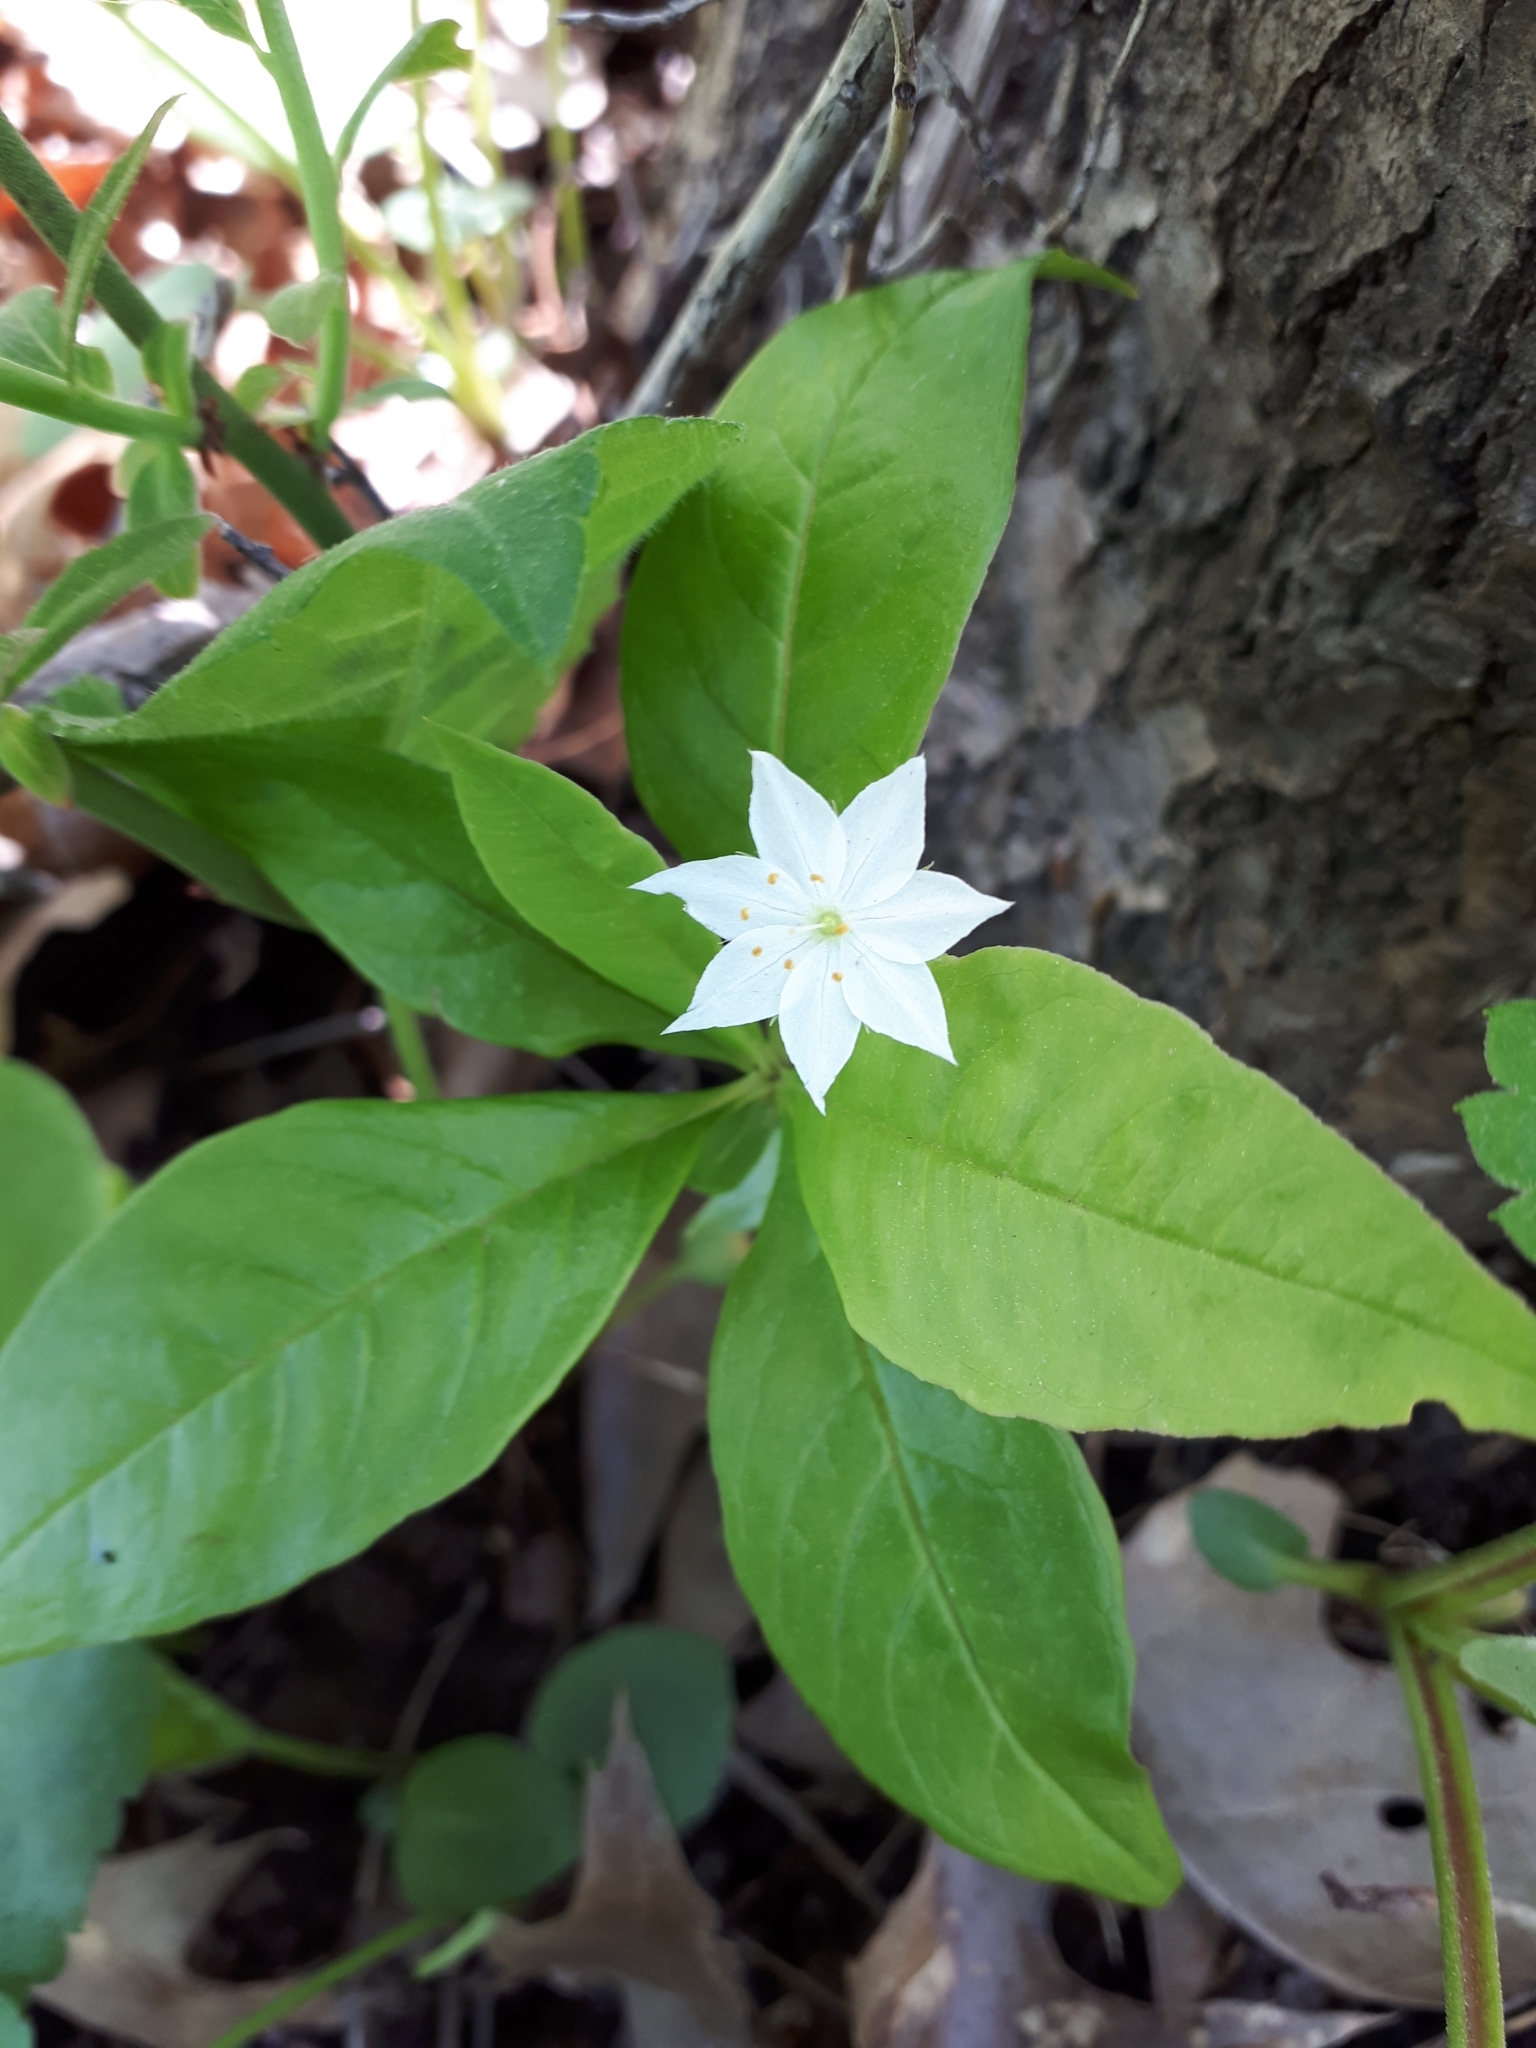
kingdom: Plantae
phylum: Tracheophyta
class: Magnoliopsida
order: Ericales
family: Primulaceae
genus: Lysimachia
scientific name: Lysimachia borealis
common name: American starflower
